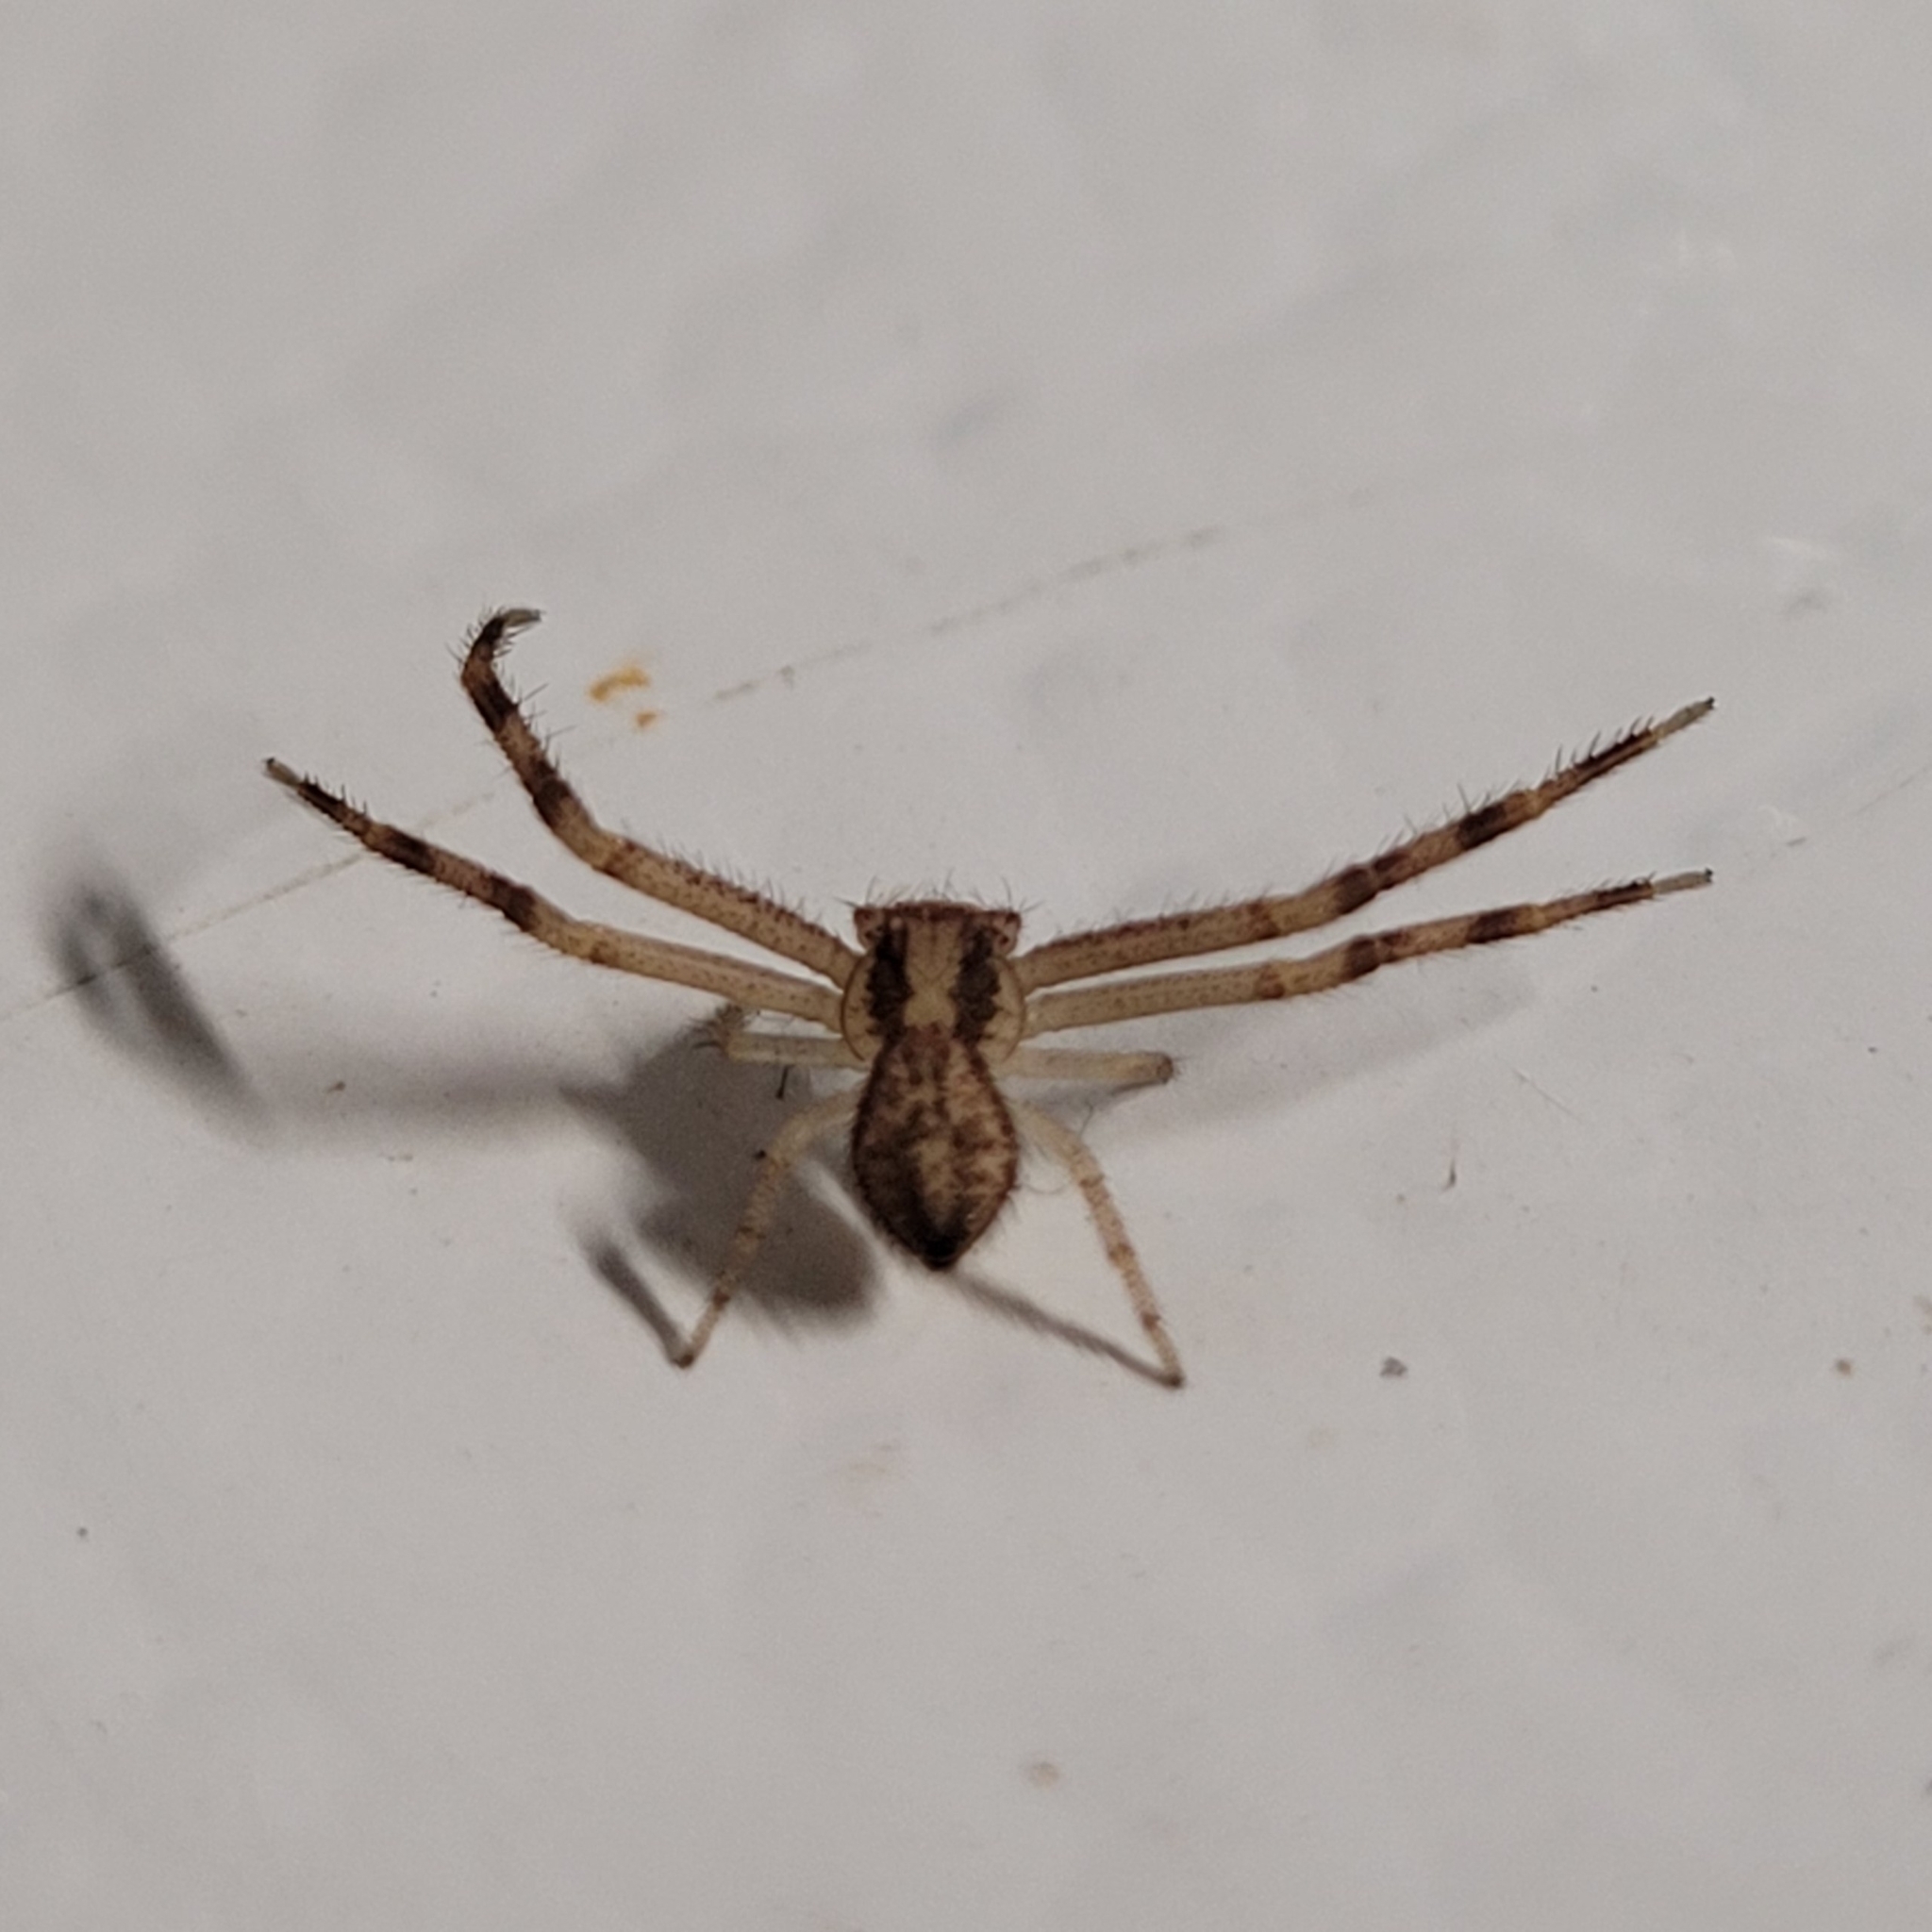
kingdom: Animalia
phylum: Arthropoda
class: Arachnida
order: Araneae
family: Thomisidae
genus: Mecaphesa
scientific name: Mecaphesa asperata
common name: Crab spiders
